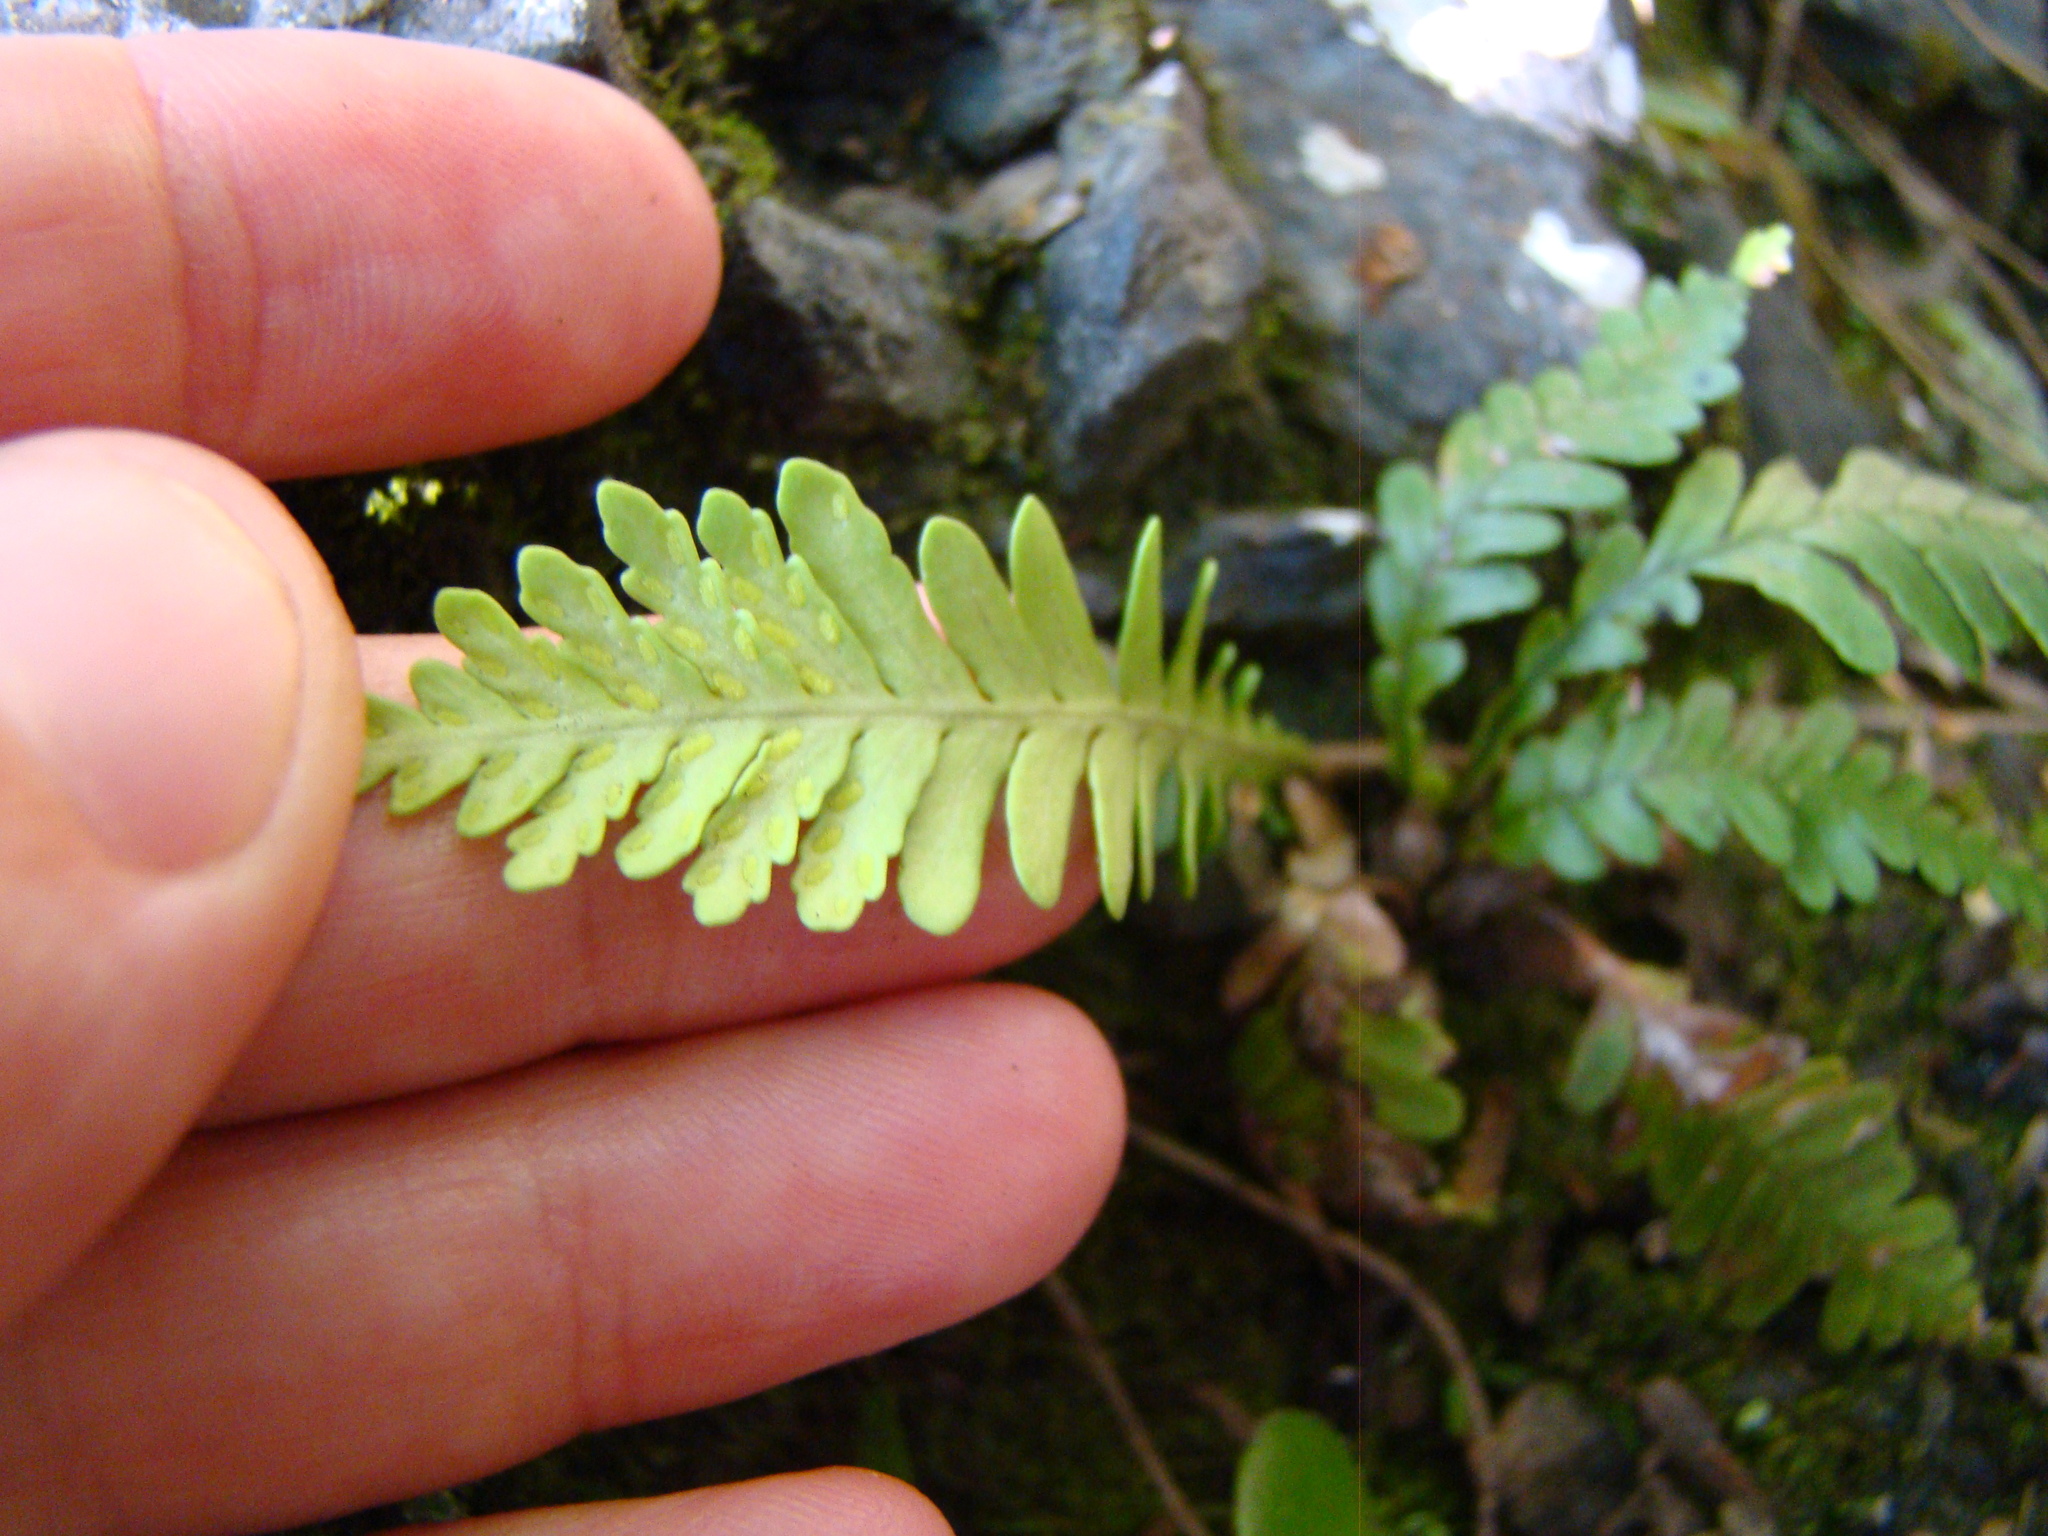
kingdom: Plantae
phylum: Tracheophyta
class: Polypodiopsida
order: Polypodiales
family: Polypodiaceae
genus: Notogrammitis
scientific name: Notogrammitis heterophylla
